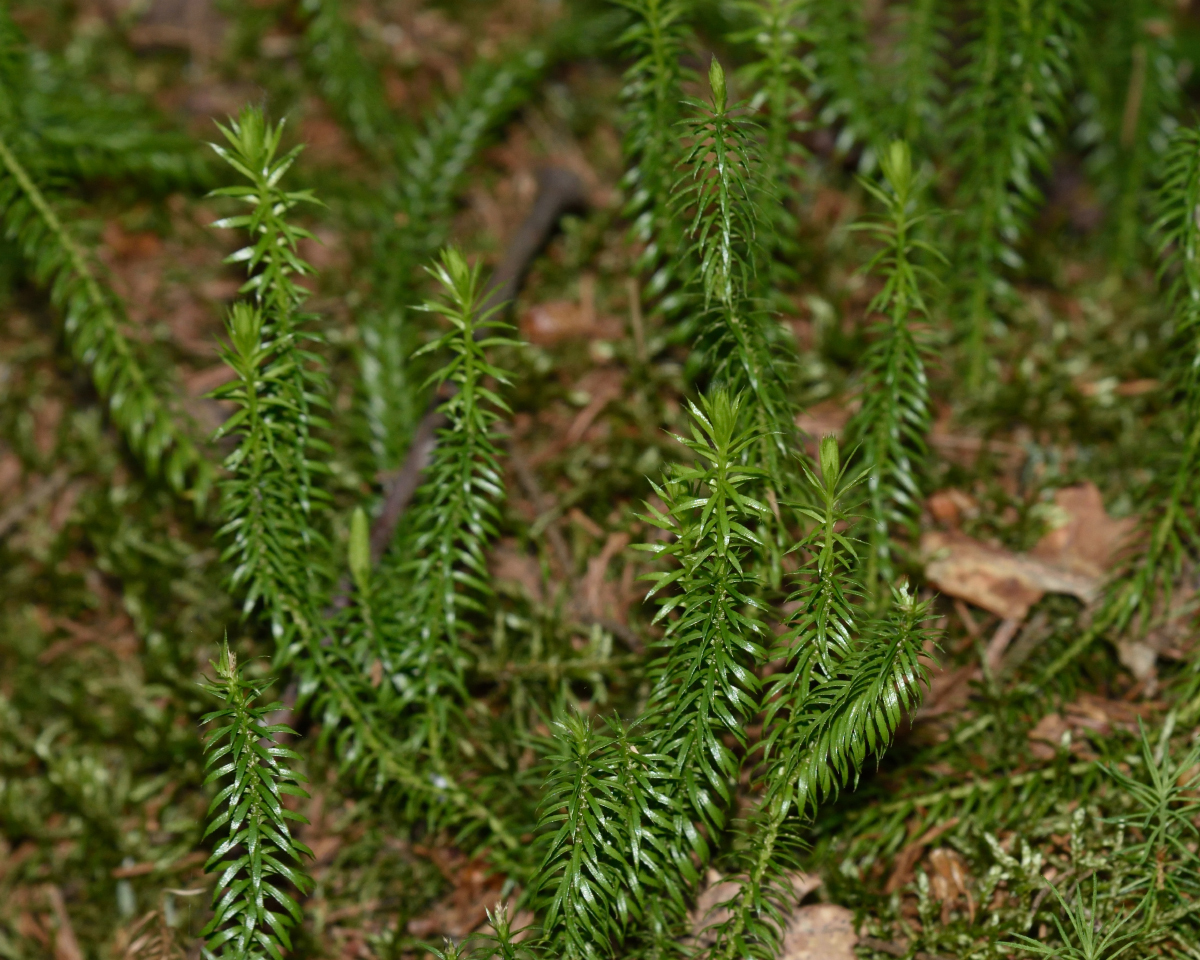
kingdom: Plantae
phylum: Tracheophyta
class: Lycopodiopsida
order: Lycopodiales
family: Lycopodiaceae
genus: Spinulum
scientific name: Spinulum annotinum
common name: Interrupted club-moss
